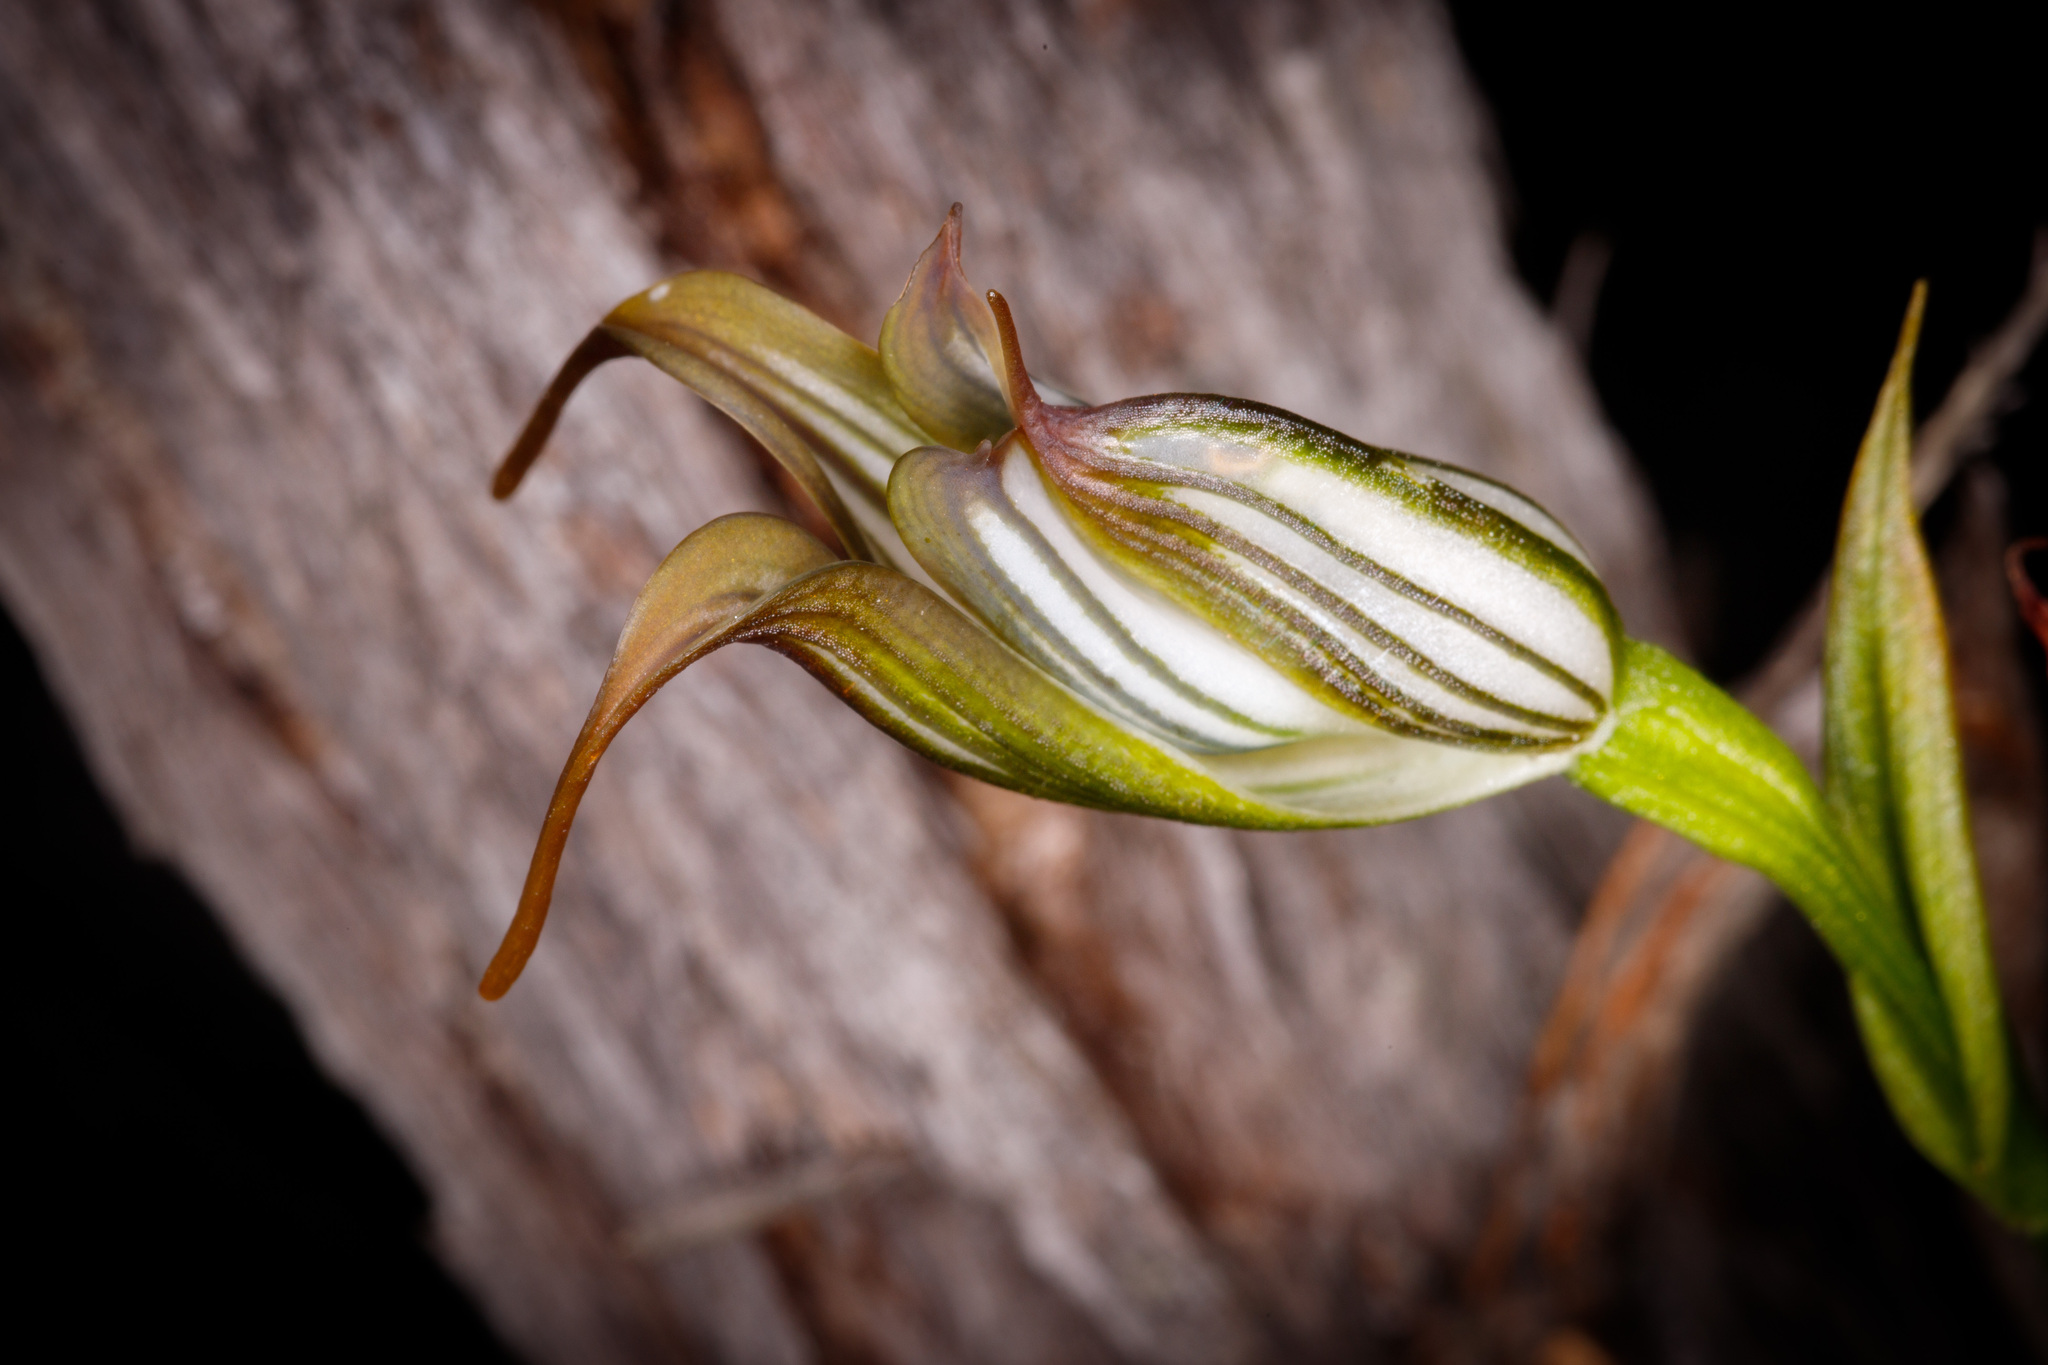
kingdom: Plantae
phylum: Tracheophyta
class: Liliopsida
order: Asparagales
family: Orchidaceae
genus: Pterostylis
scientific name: Pterostylis recurva
